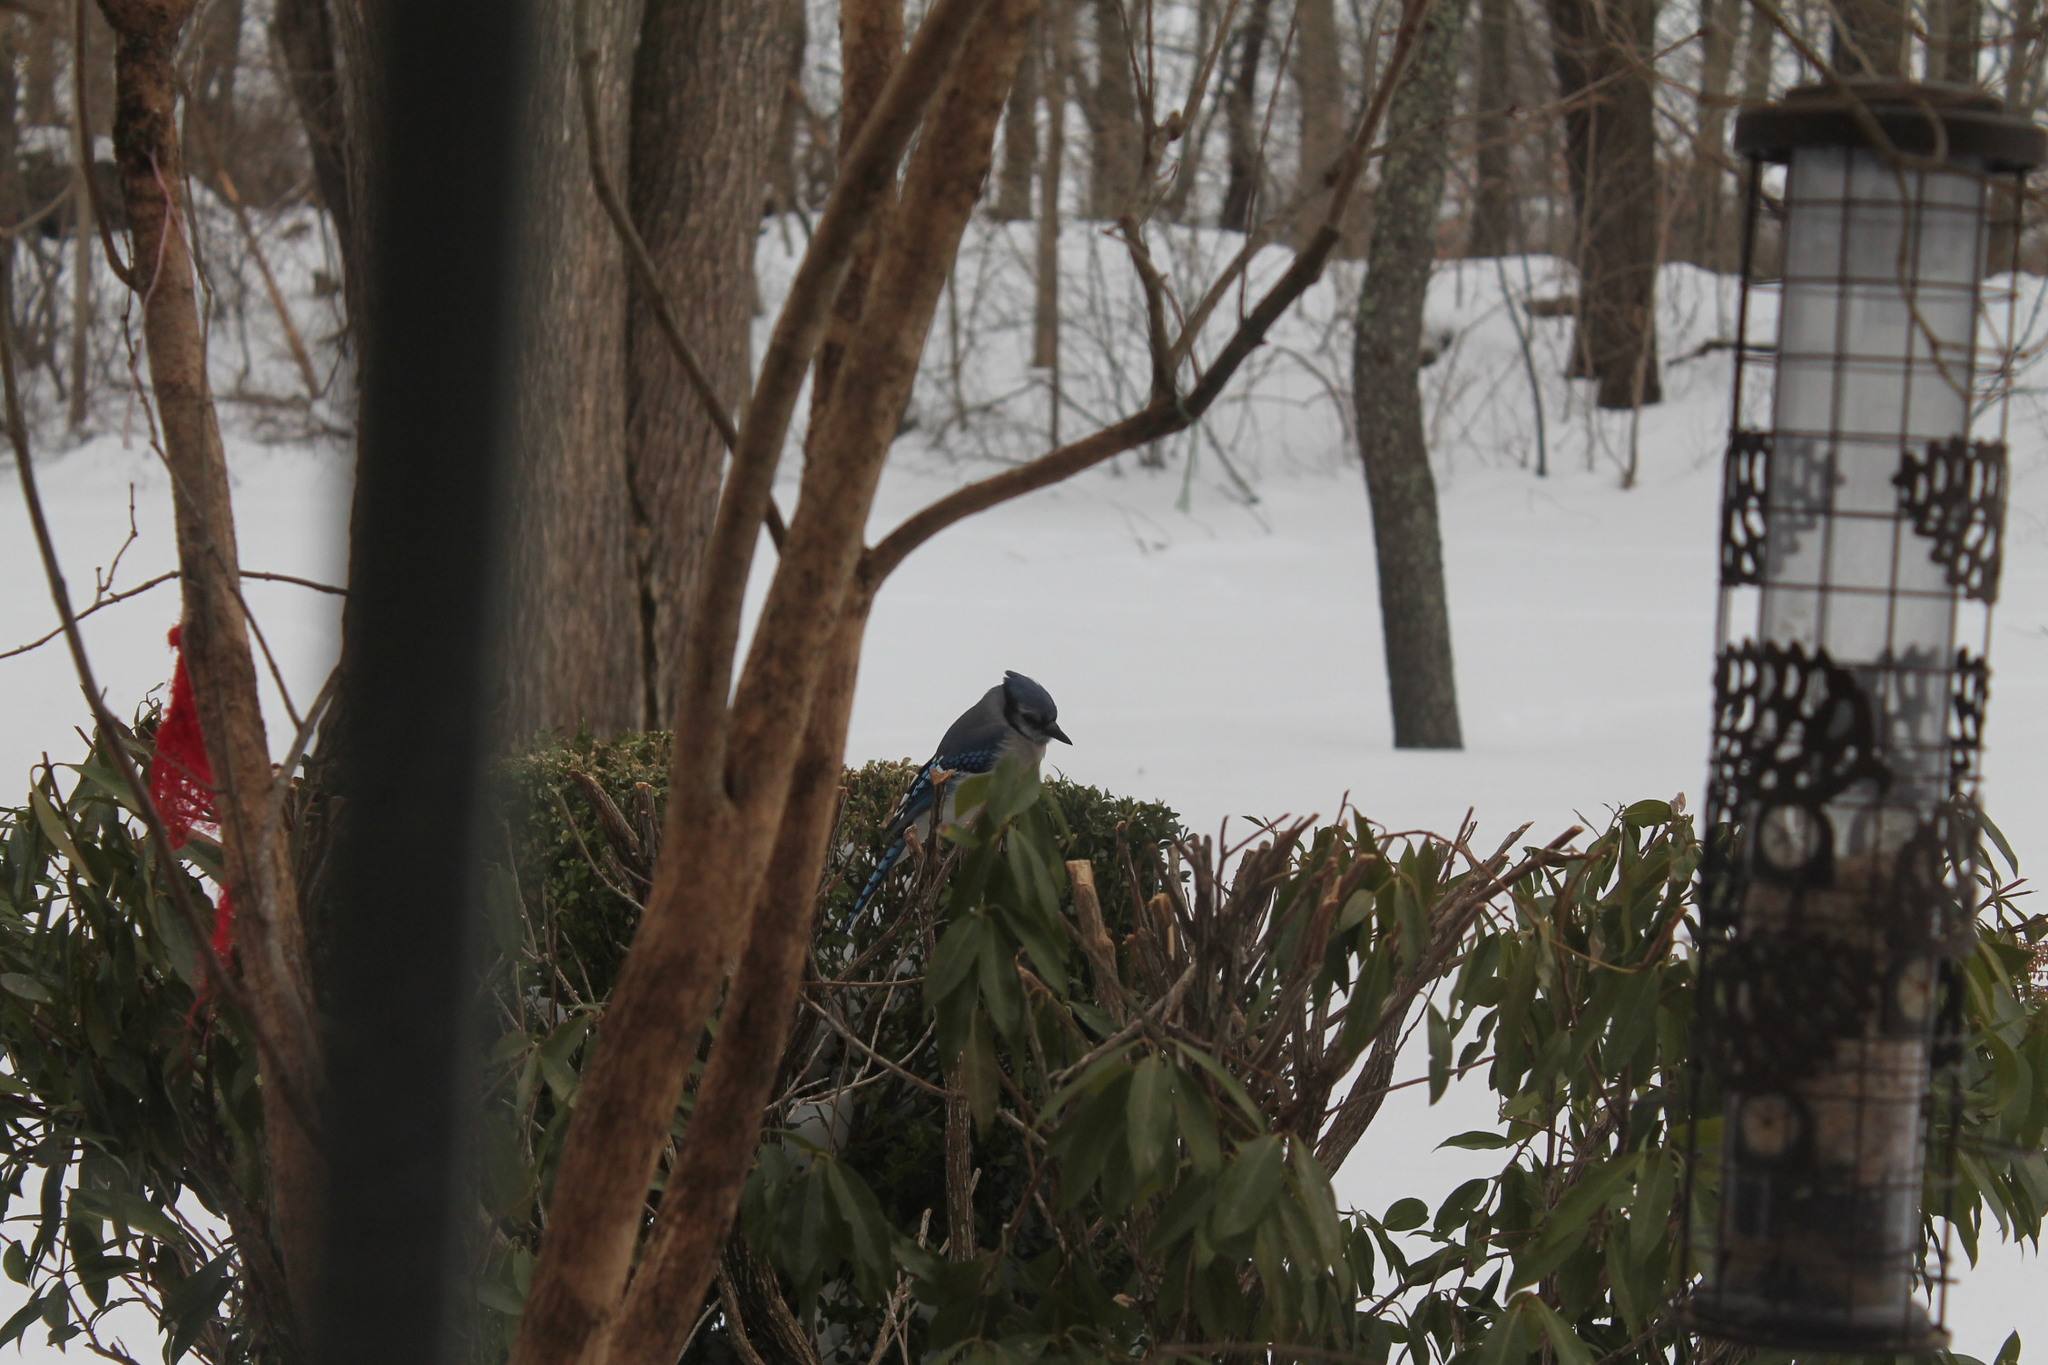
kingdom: Animalia
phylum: Chordata
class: Aves
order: Passeriformes
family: Corvidae
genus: Cyanocitta
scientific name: Cyanocitta cristata
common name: Blue jay
